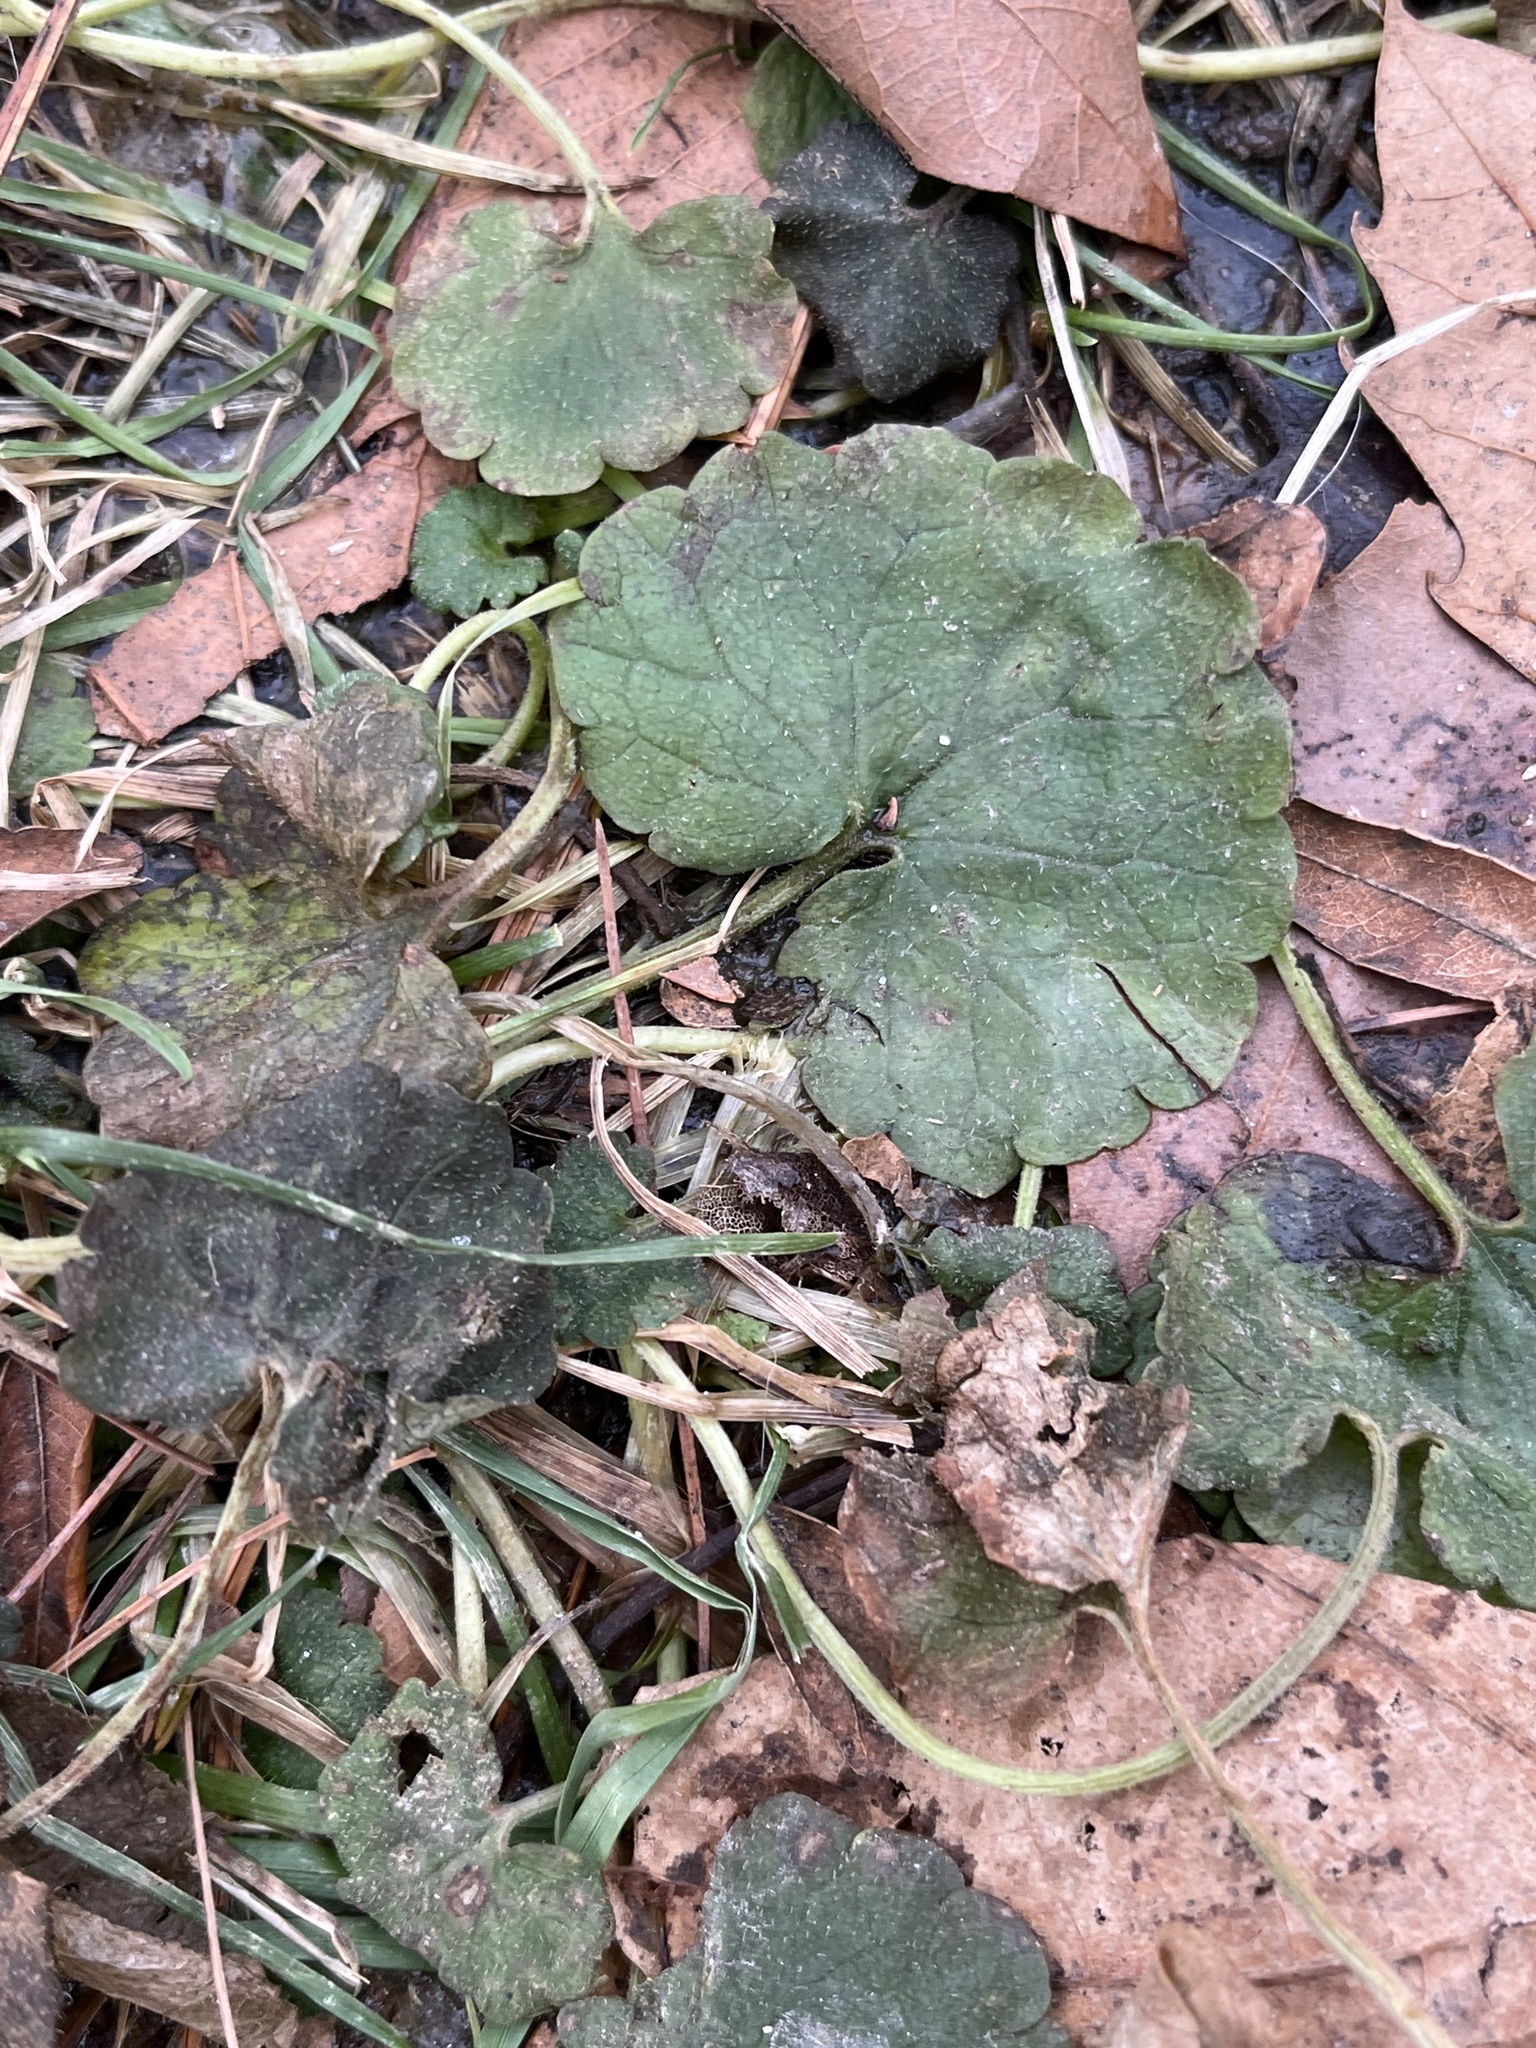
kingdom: Plantae
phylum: Tracheophyta
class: Magnoliopsida
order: Lamiales
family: Lamiaceae
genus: Glechoma
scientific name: Glechoma hederacea
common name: Ground ivy
